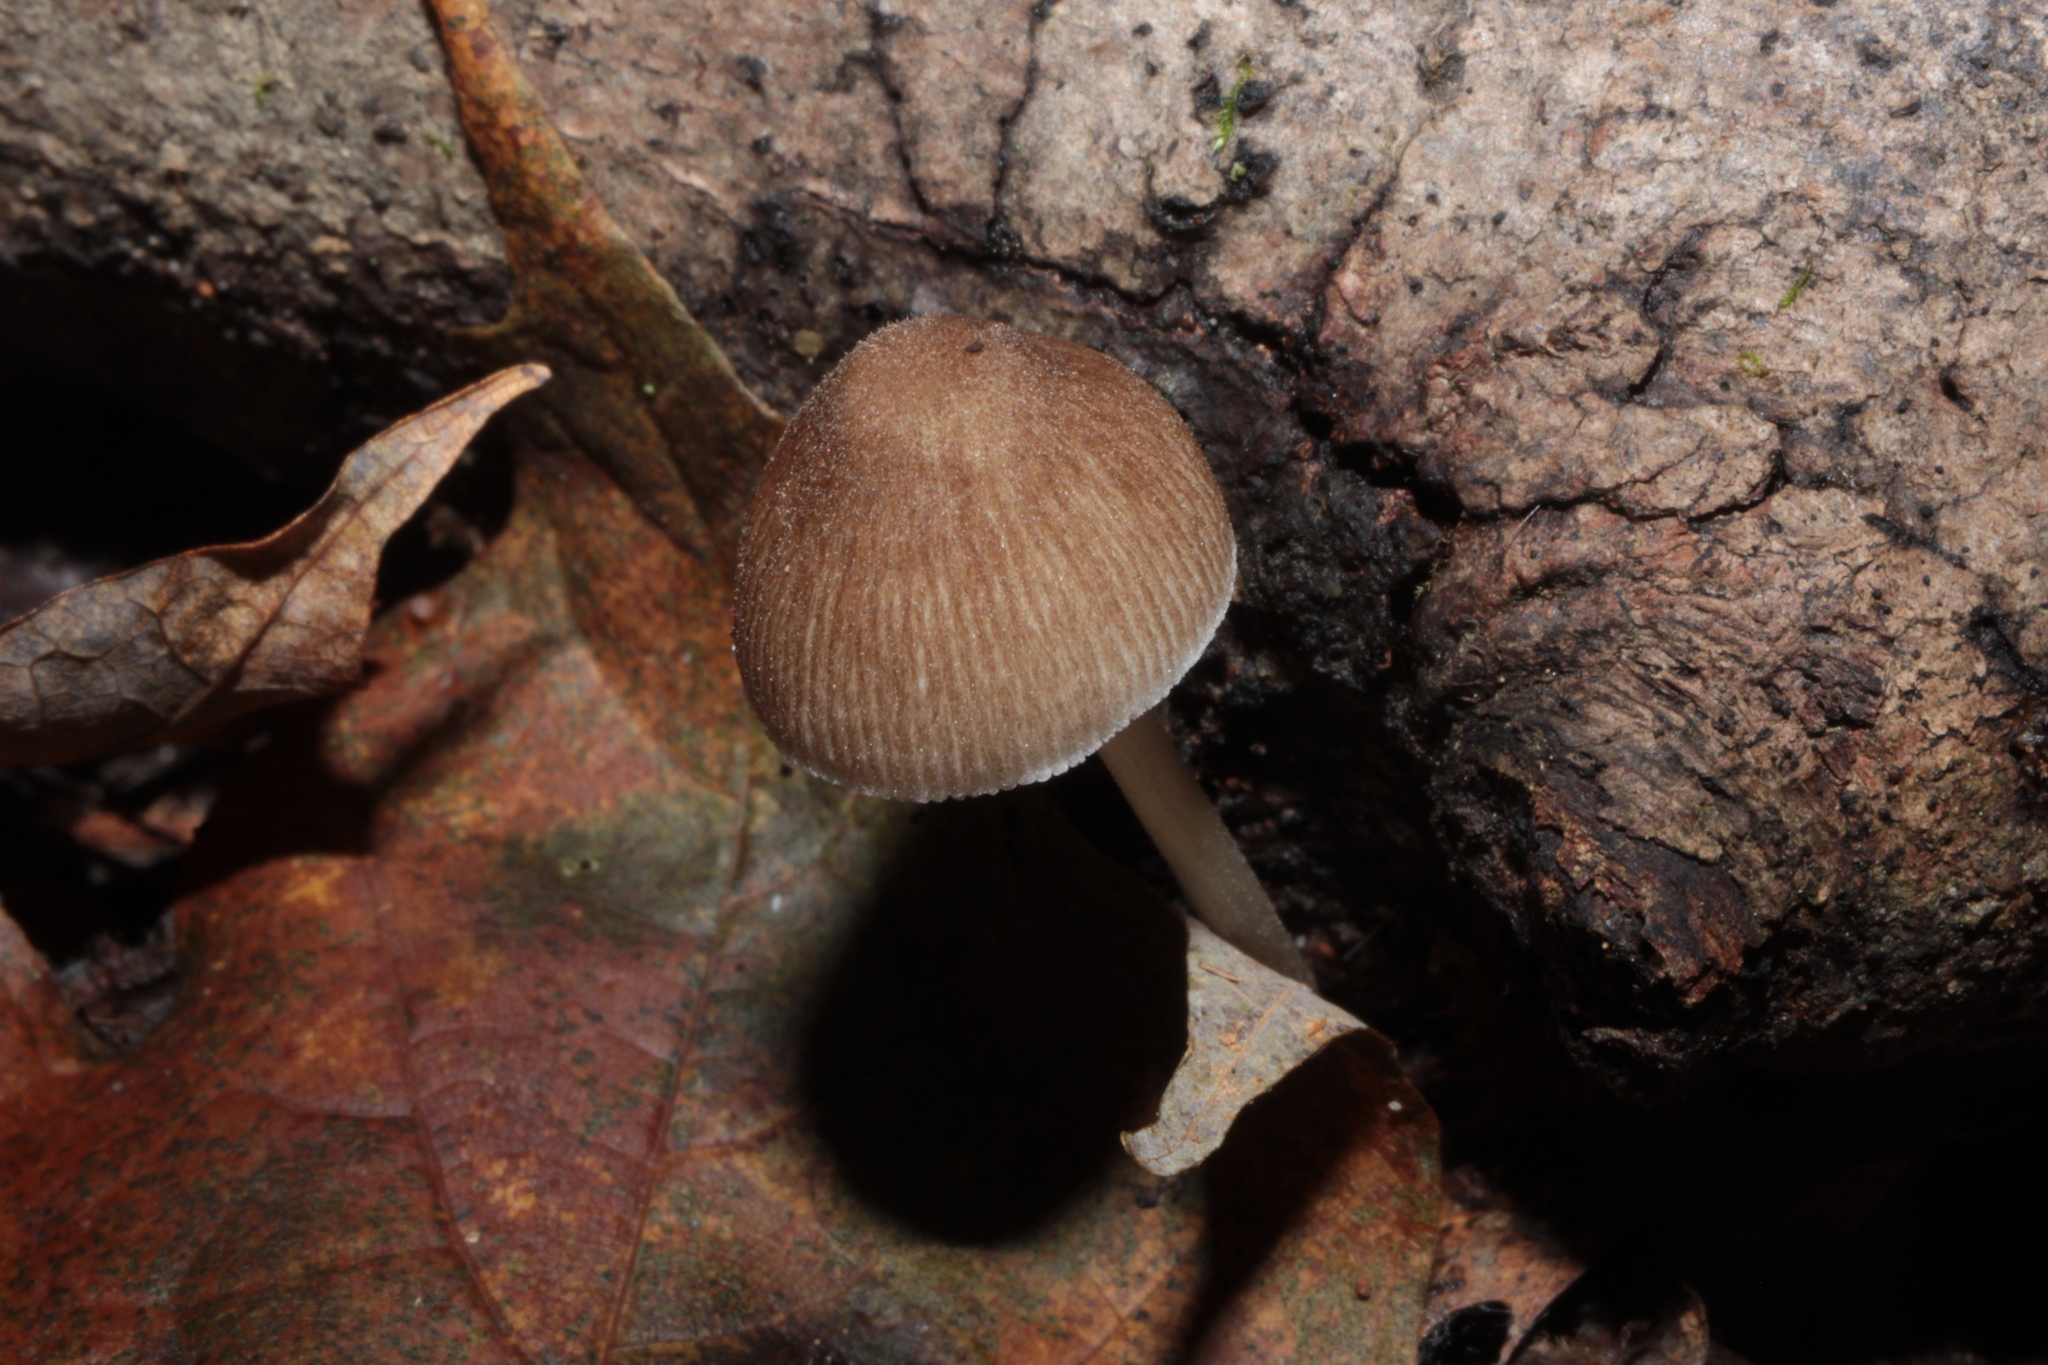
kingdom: Fungi
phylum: Basidiomycota
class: Agaricomycetes
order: Agaricales
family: Pluteaceae
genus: Pluteus
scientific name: Pluteus longistriatus
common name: Pleated pluteus
